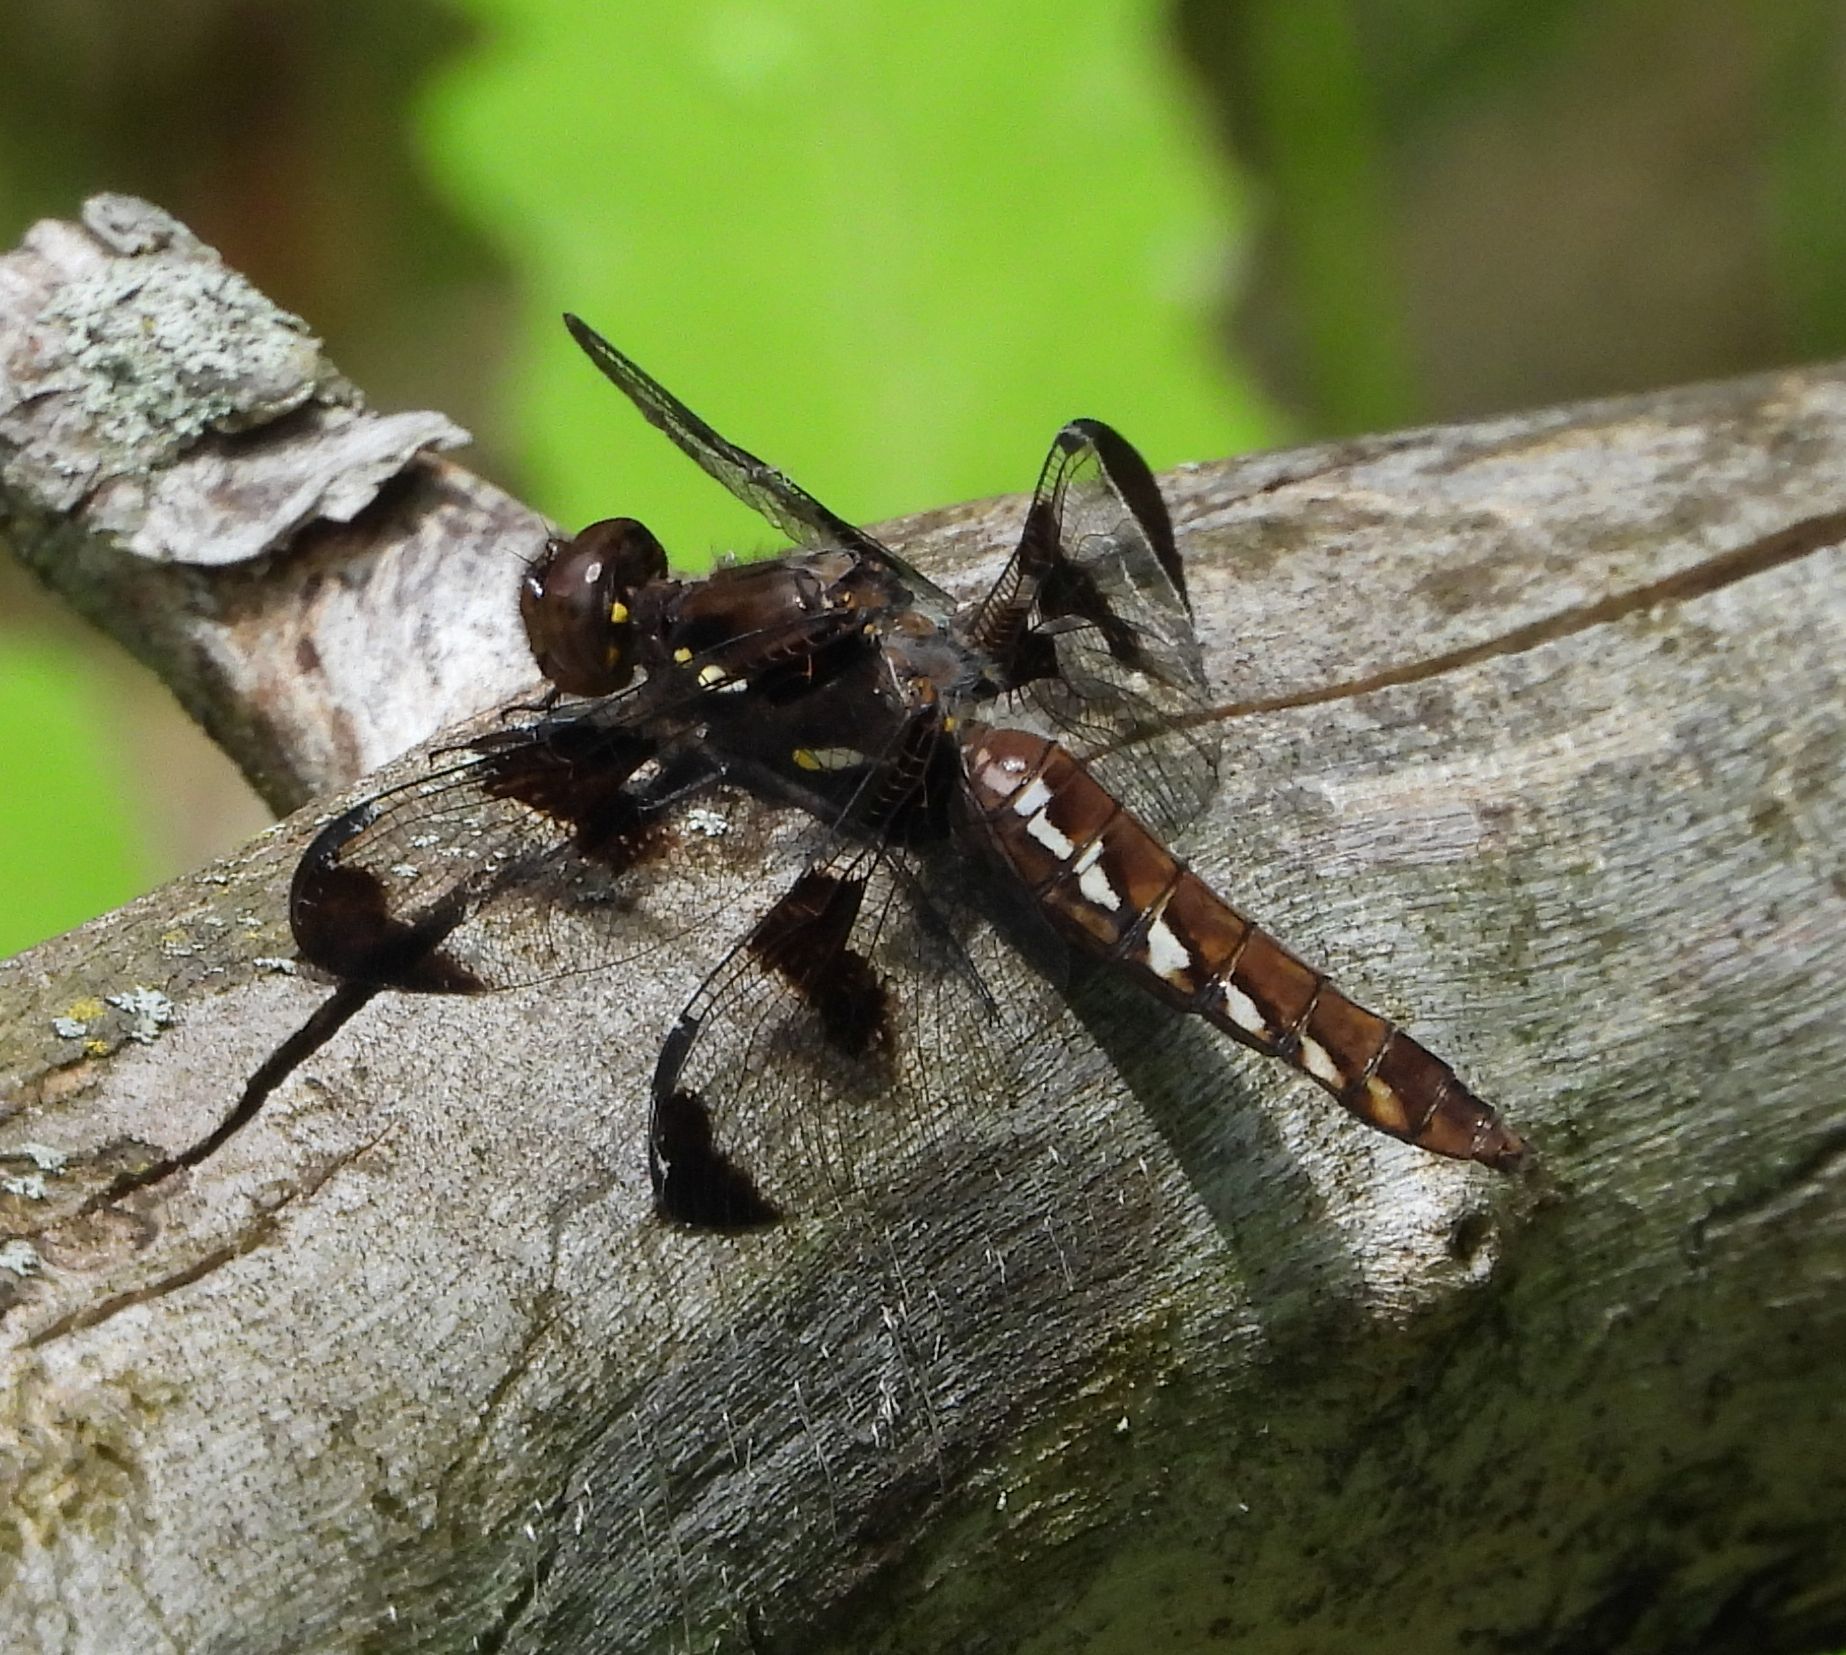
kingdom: Animalia
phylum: Arthropoda
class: Insecta
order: Odonata
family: Libellulidae
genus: Plathemis
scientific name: Plathemis lydia
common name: Common whitetail
